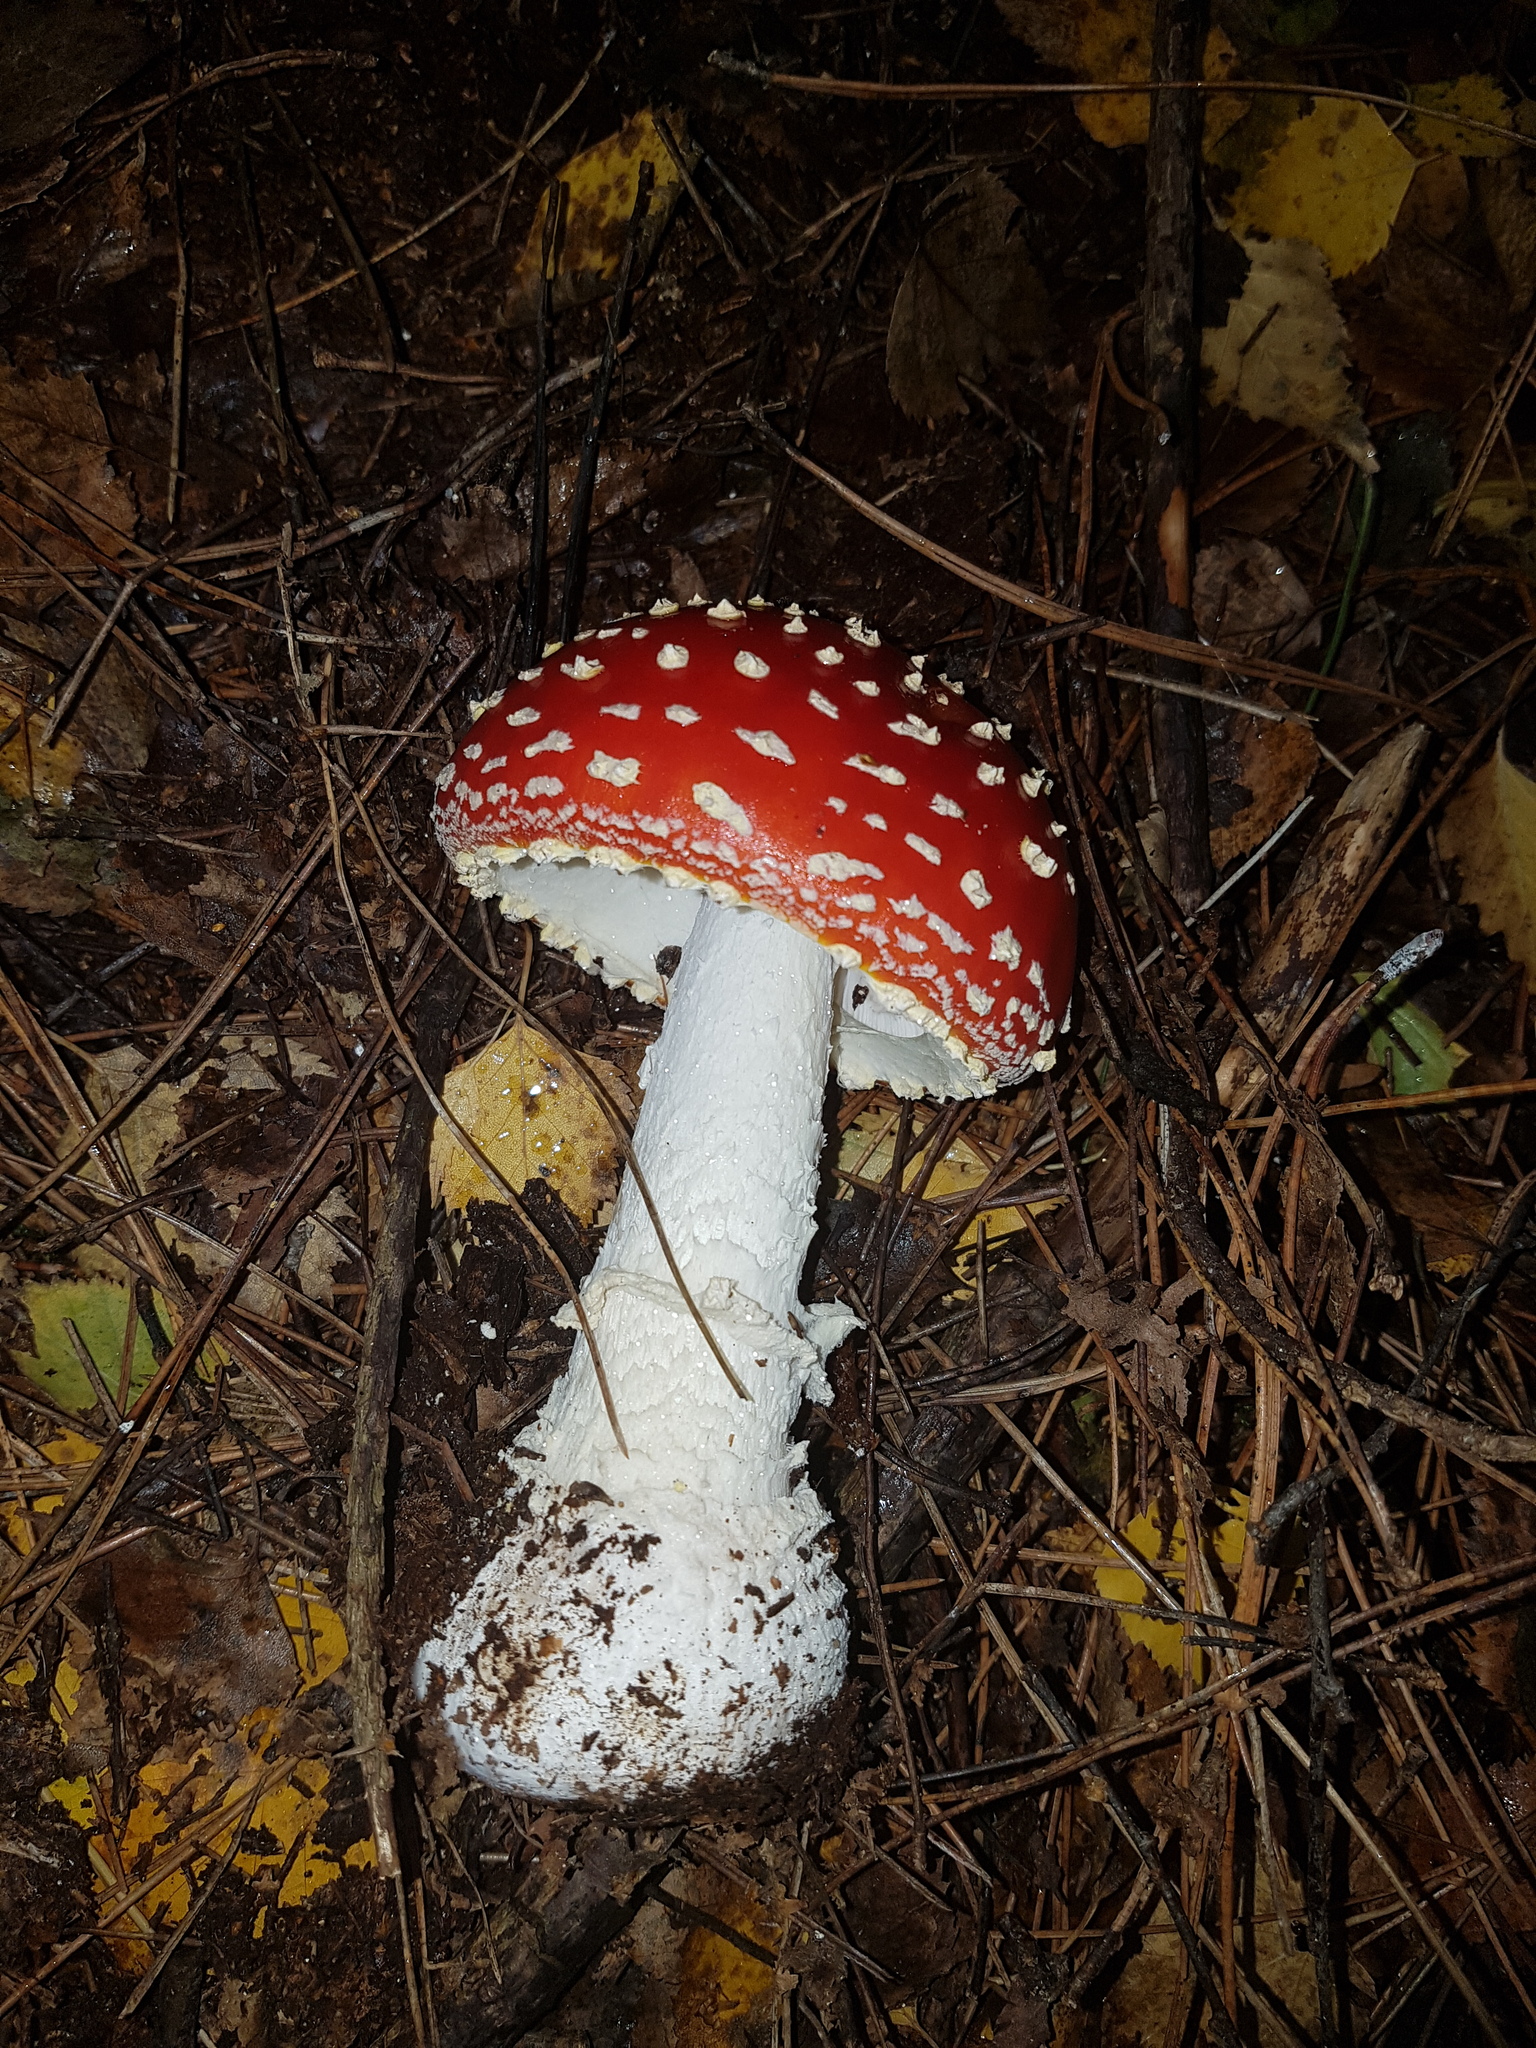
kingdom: Fungi
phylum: Basidiomycota
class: Agaricomycetes
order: Agaricales
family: Amanitaceae
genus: Amanita
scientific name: Amanita muscaria
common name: Fly agaric
